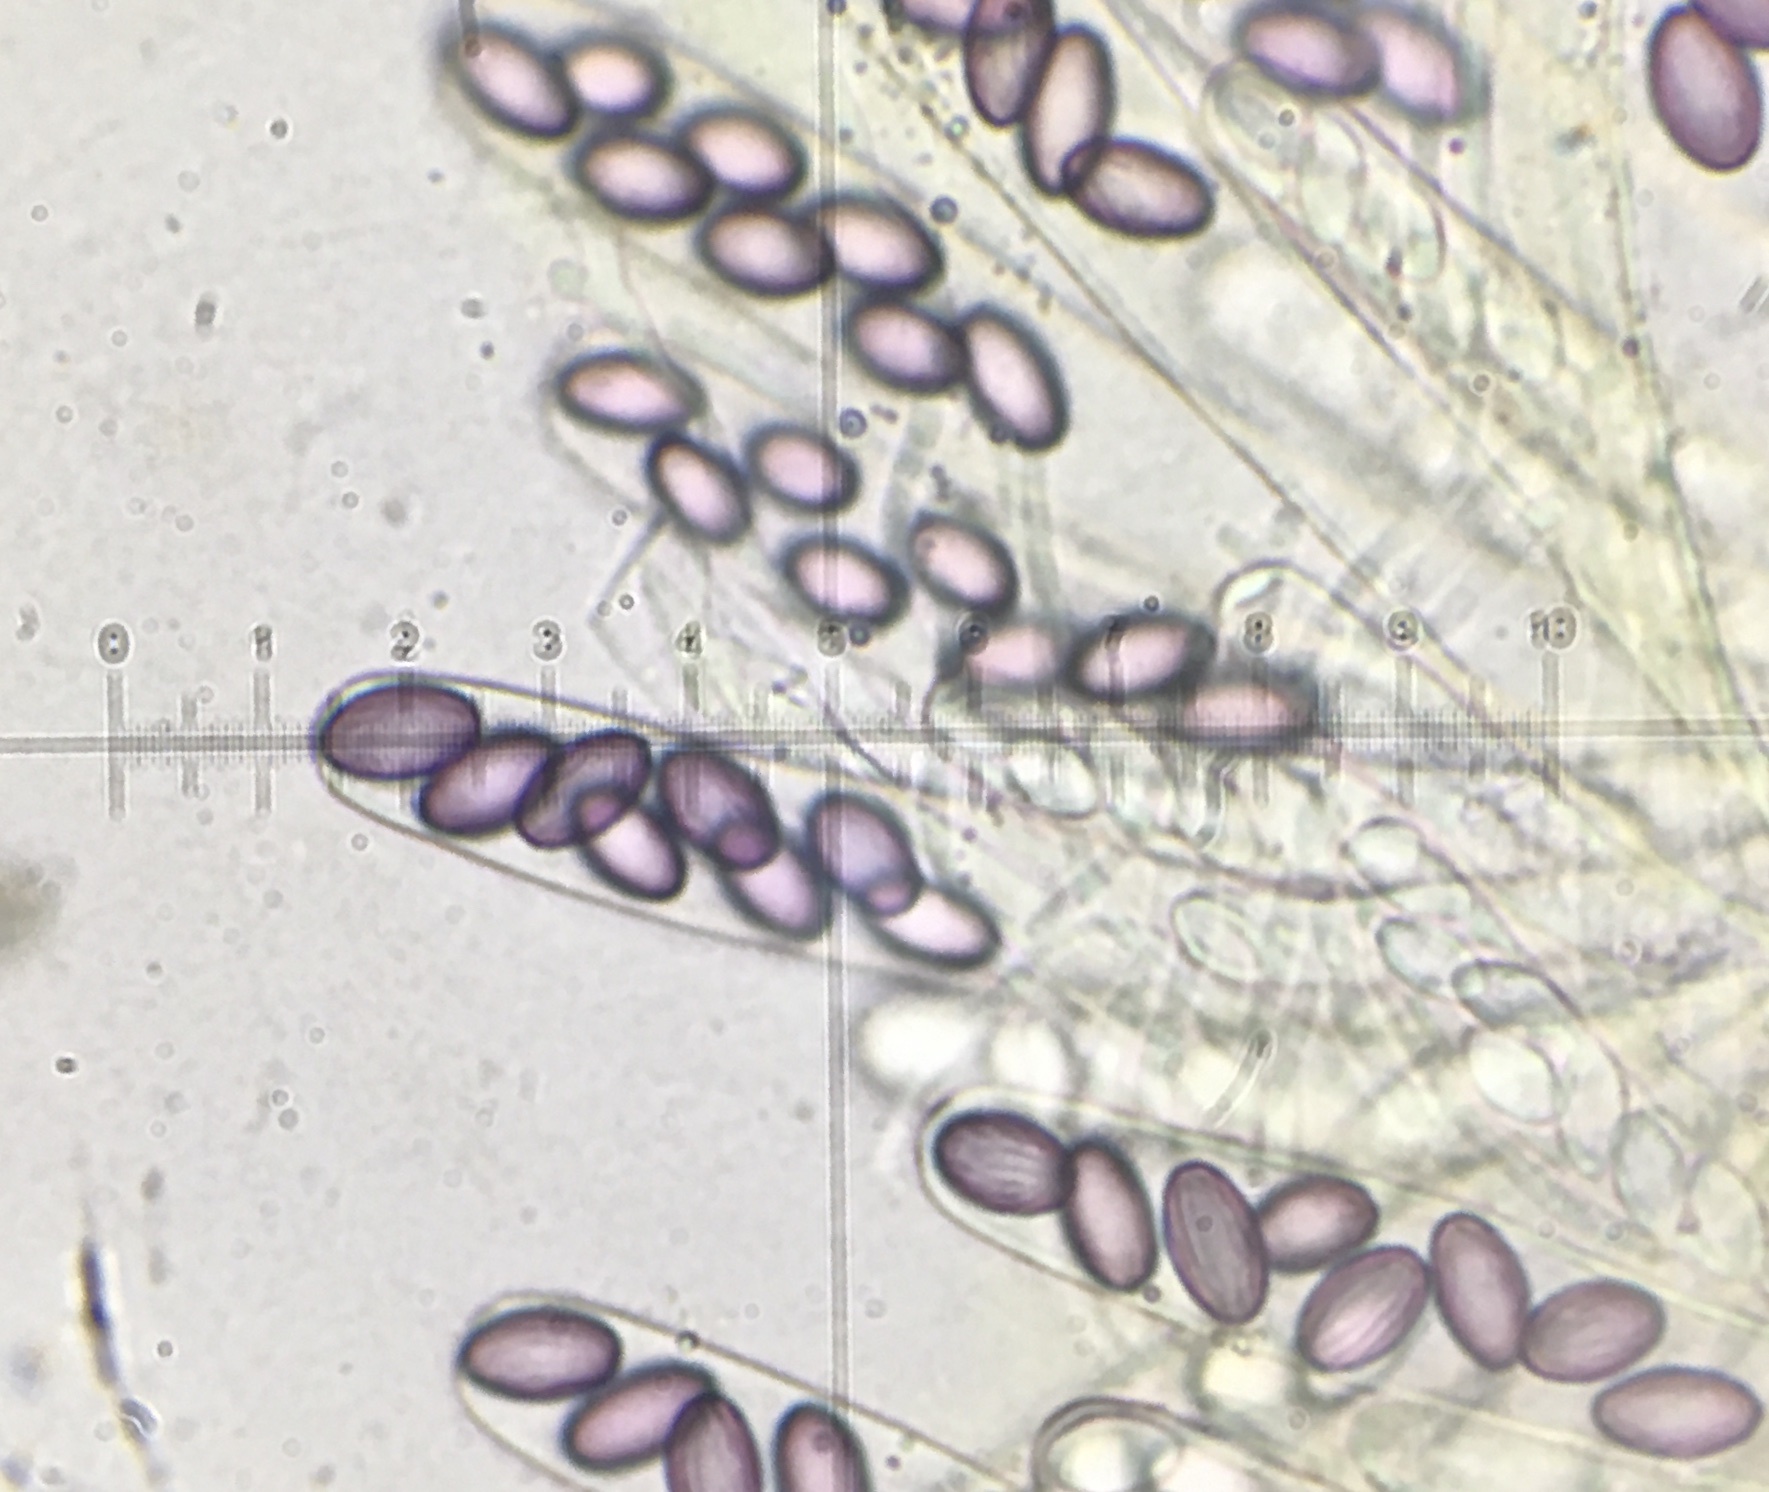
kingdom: Fungi
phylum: Ascomycota
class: Pezizomycetes
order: Pezizales
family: Ascobolaceae
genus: Ascobolus
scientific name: Ascobolus crenulatus
